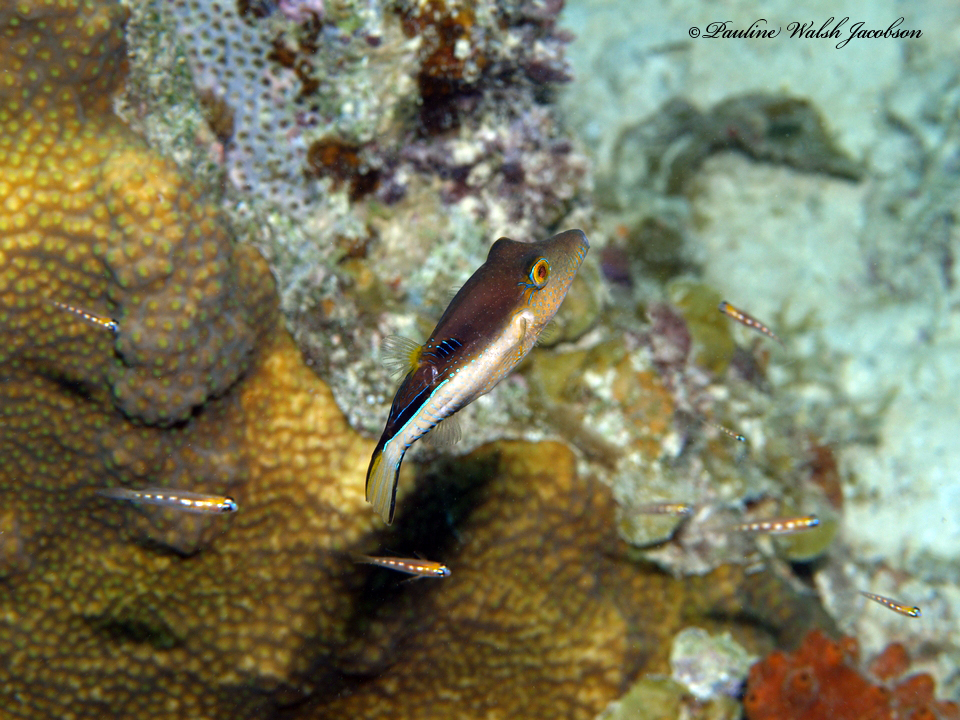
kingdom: Animalia
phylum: Chordata
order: Tetraodontiformes
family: Tetraodontidae
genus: Canthigaster
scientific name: Canthigaster rostrata
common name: Caribbean sharpnose-puffer
